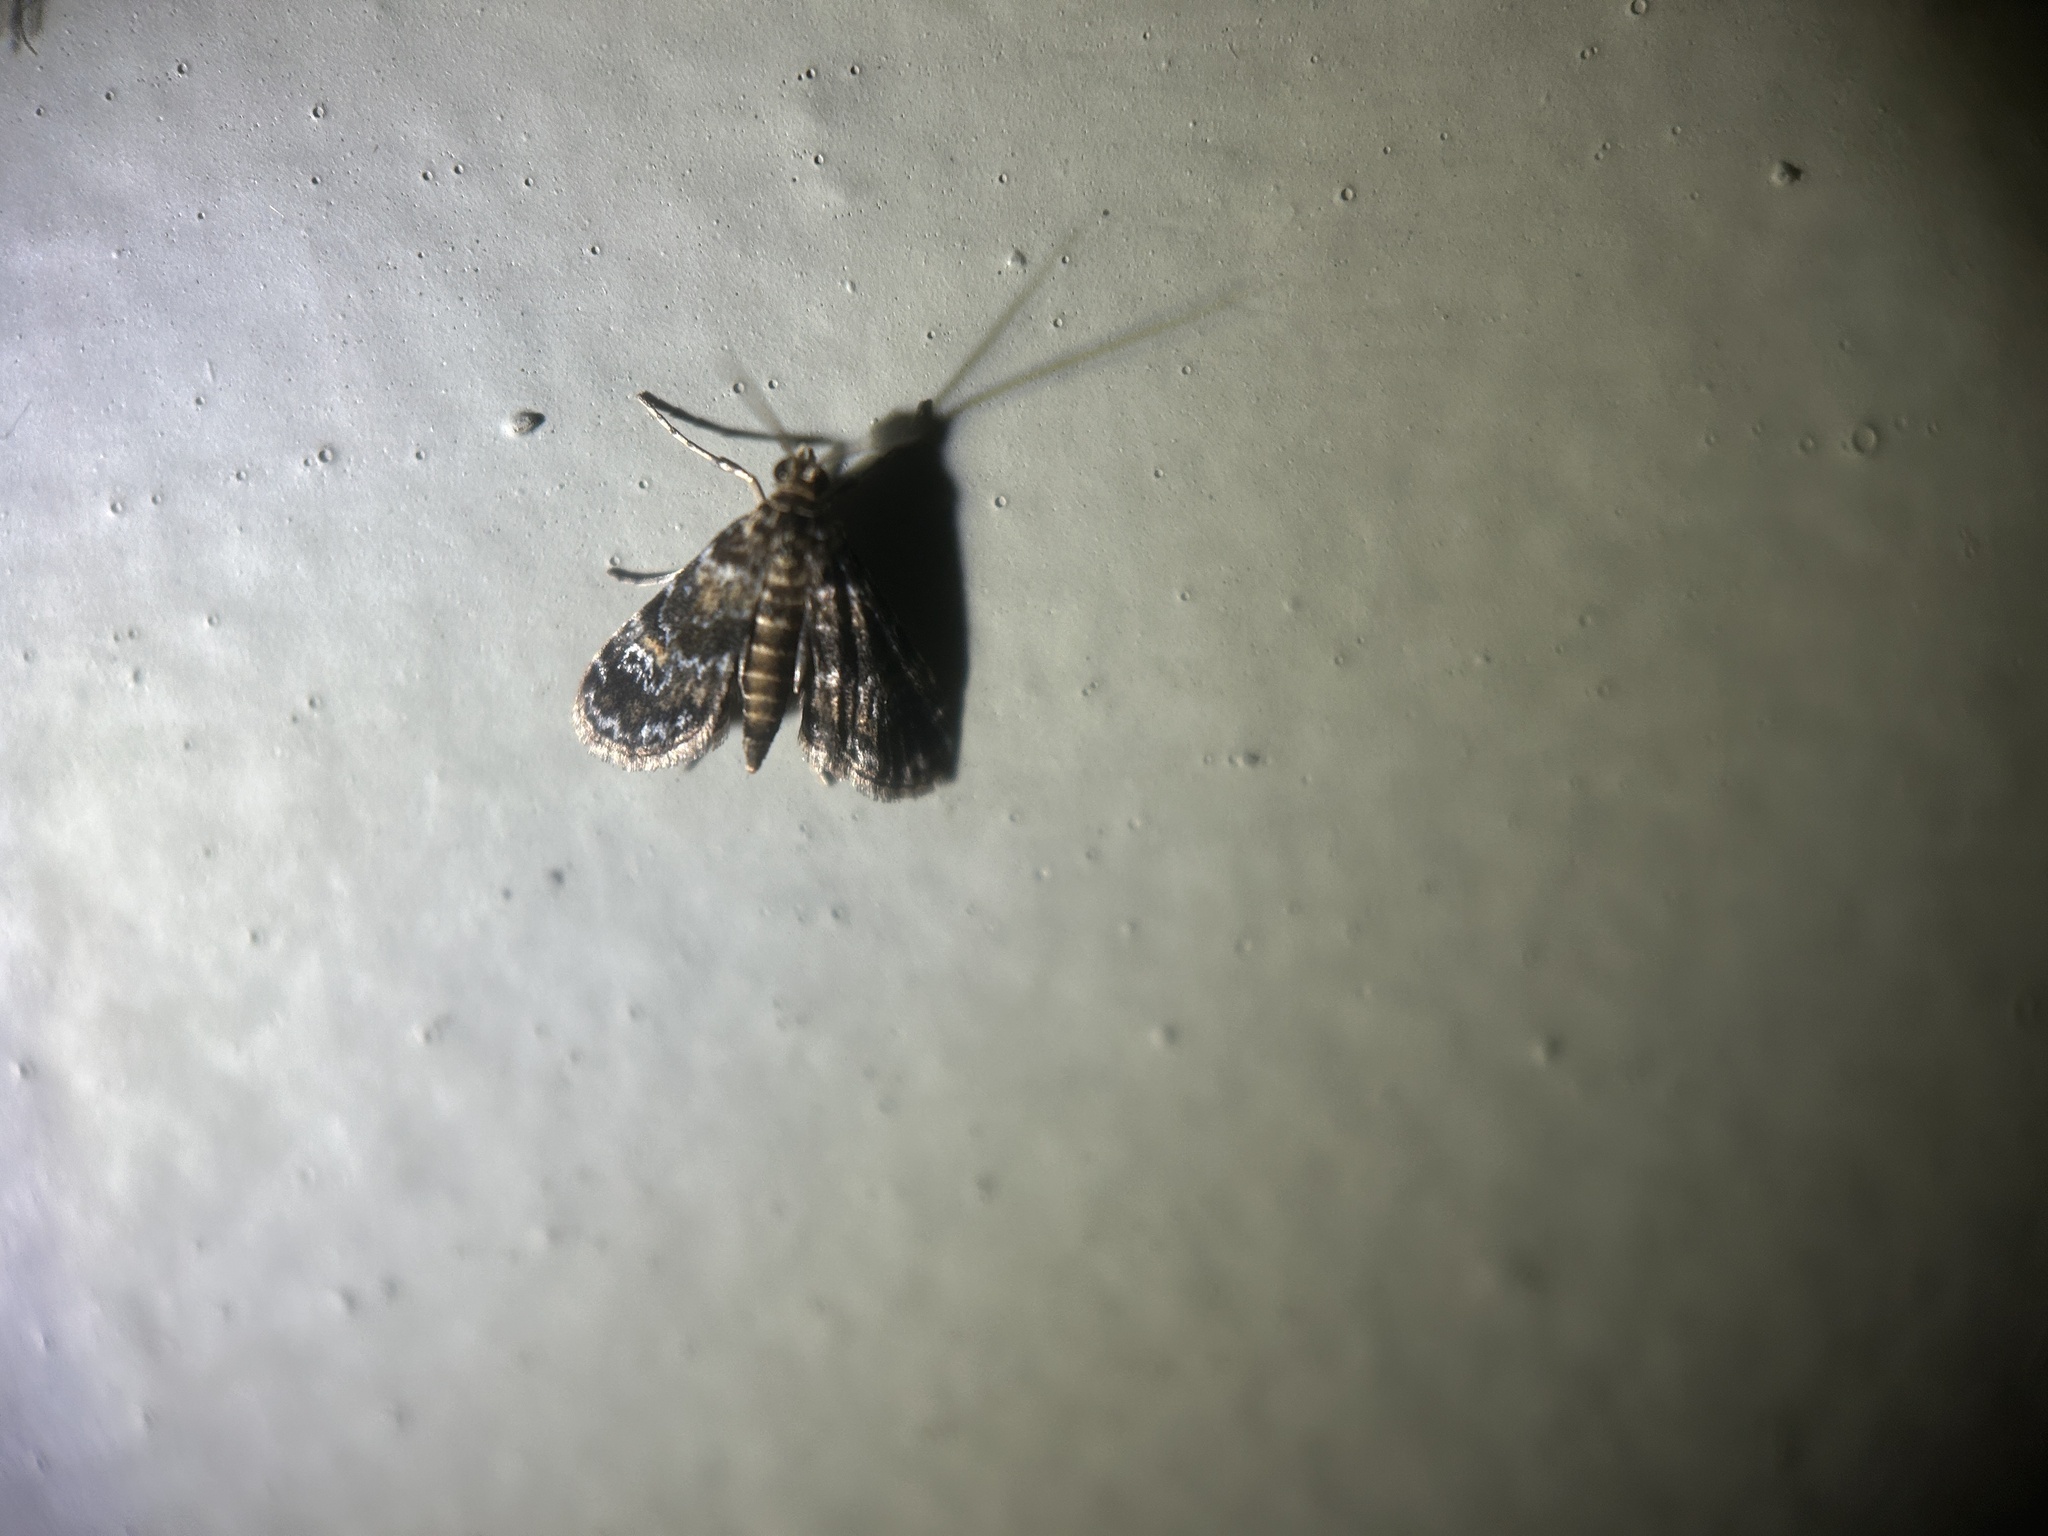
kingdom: Animalia
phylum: Arthropoda
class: Insecta
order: Lepidoptera
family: Crambidae
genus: Elophila
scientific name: Elophila obliteralis
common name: Waterlily leafcutter moth
